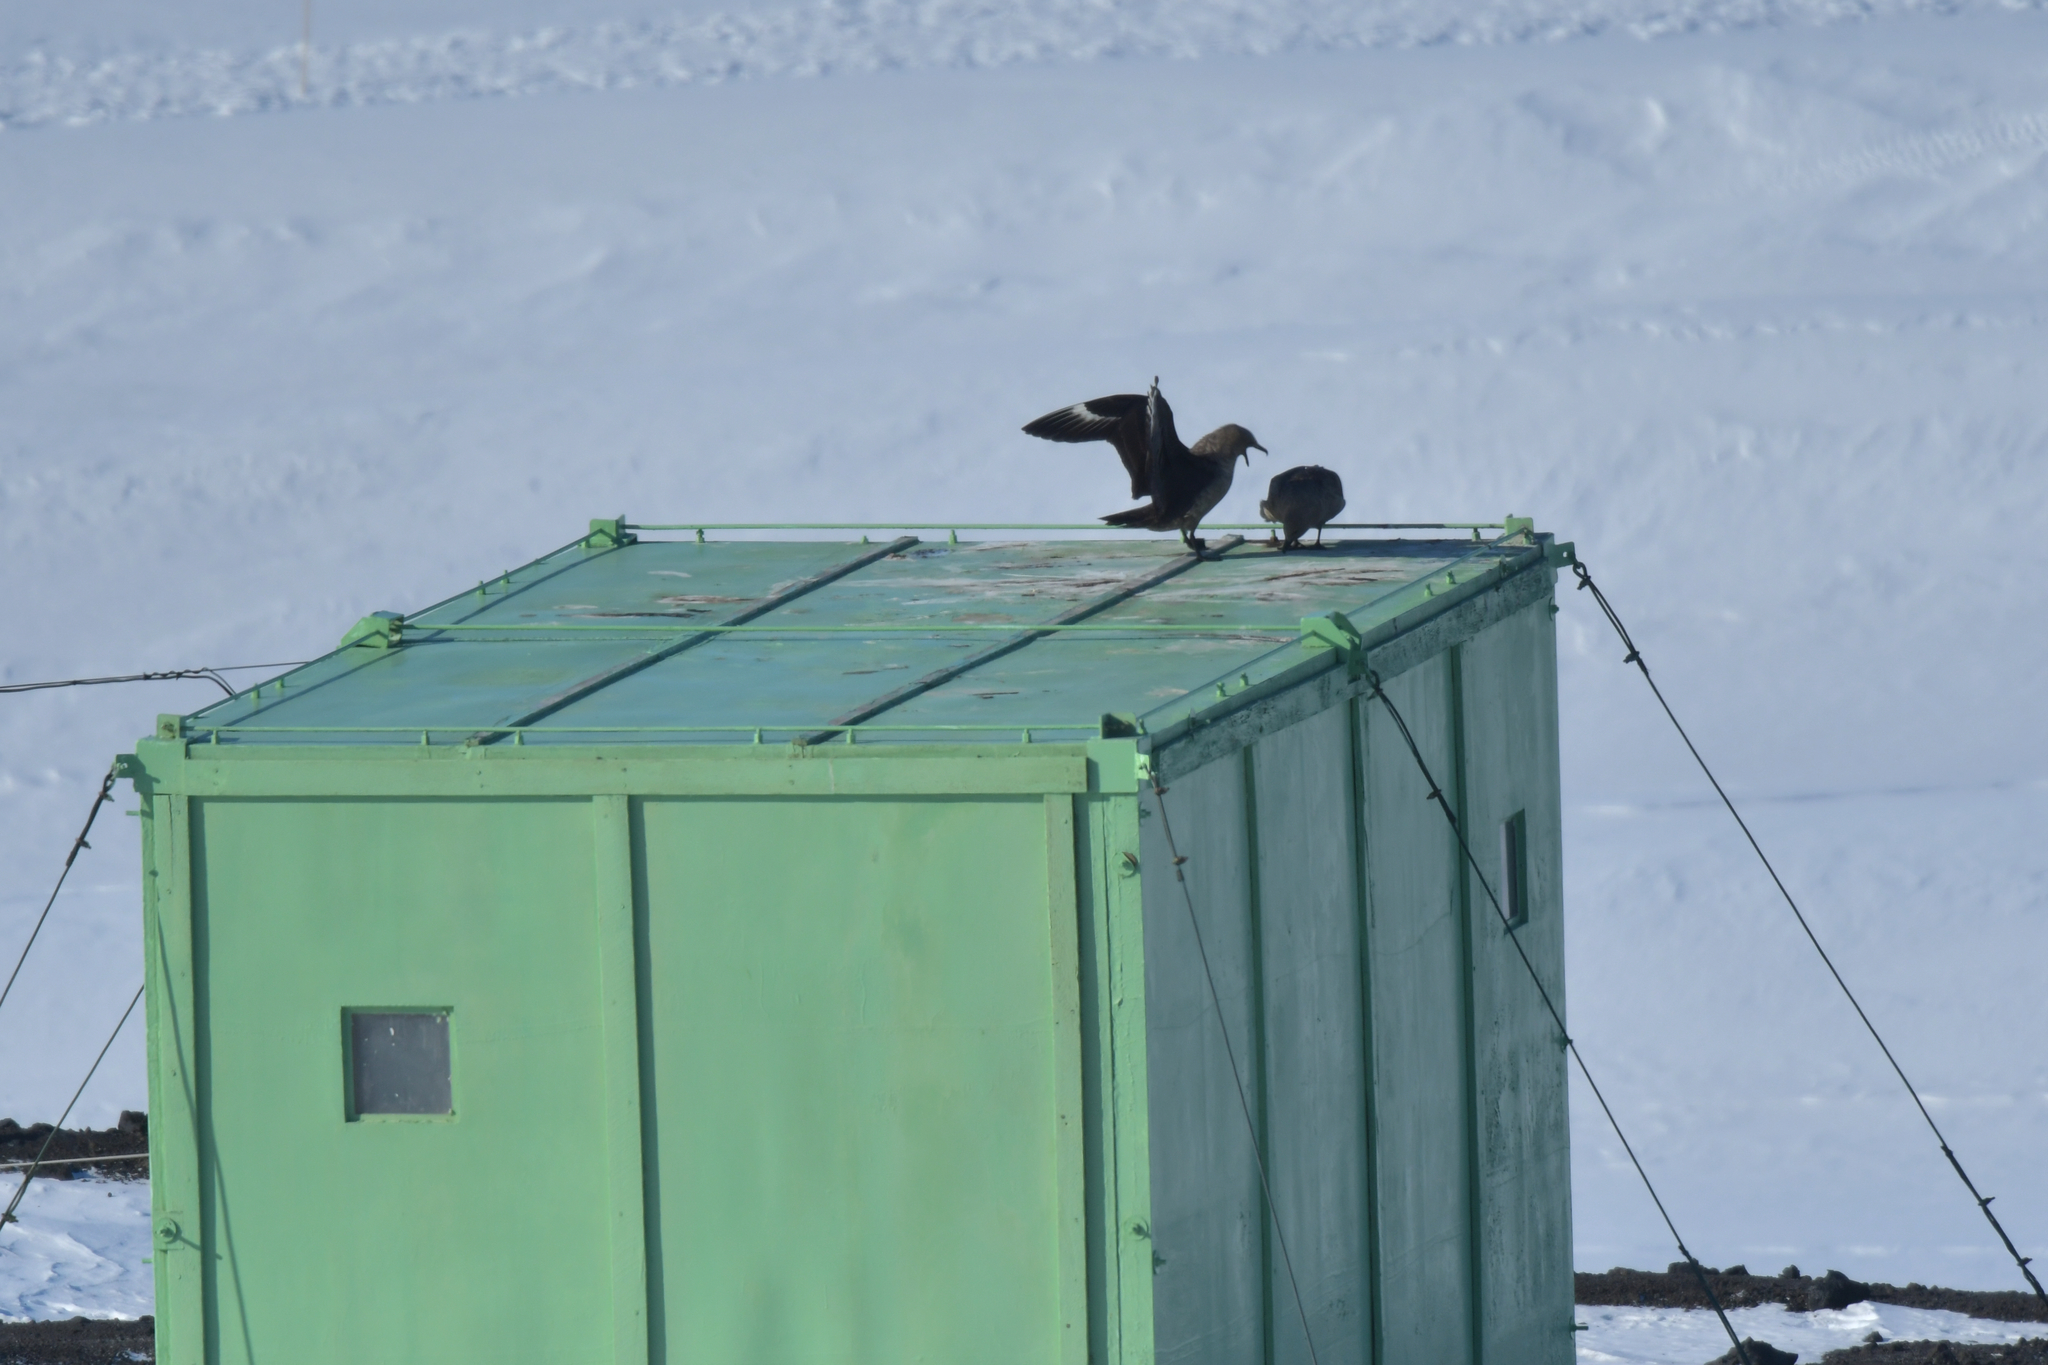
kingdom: Animalia
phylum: Chordata
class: Aves
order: Charadriiformes
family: Stercorariidae
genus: Stercorarius
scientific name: Stercorarius maccormicki
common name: South polar skua
